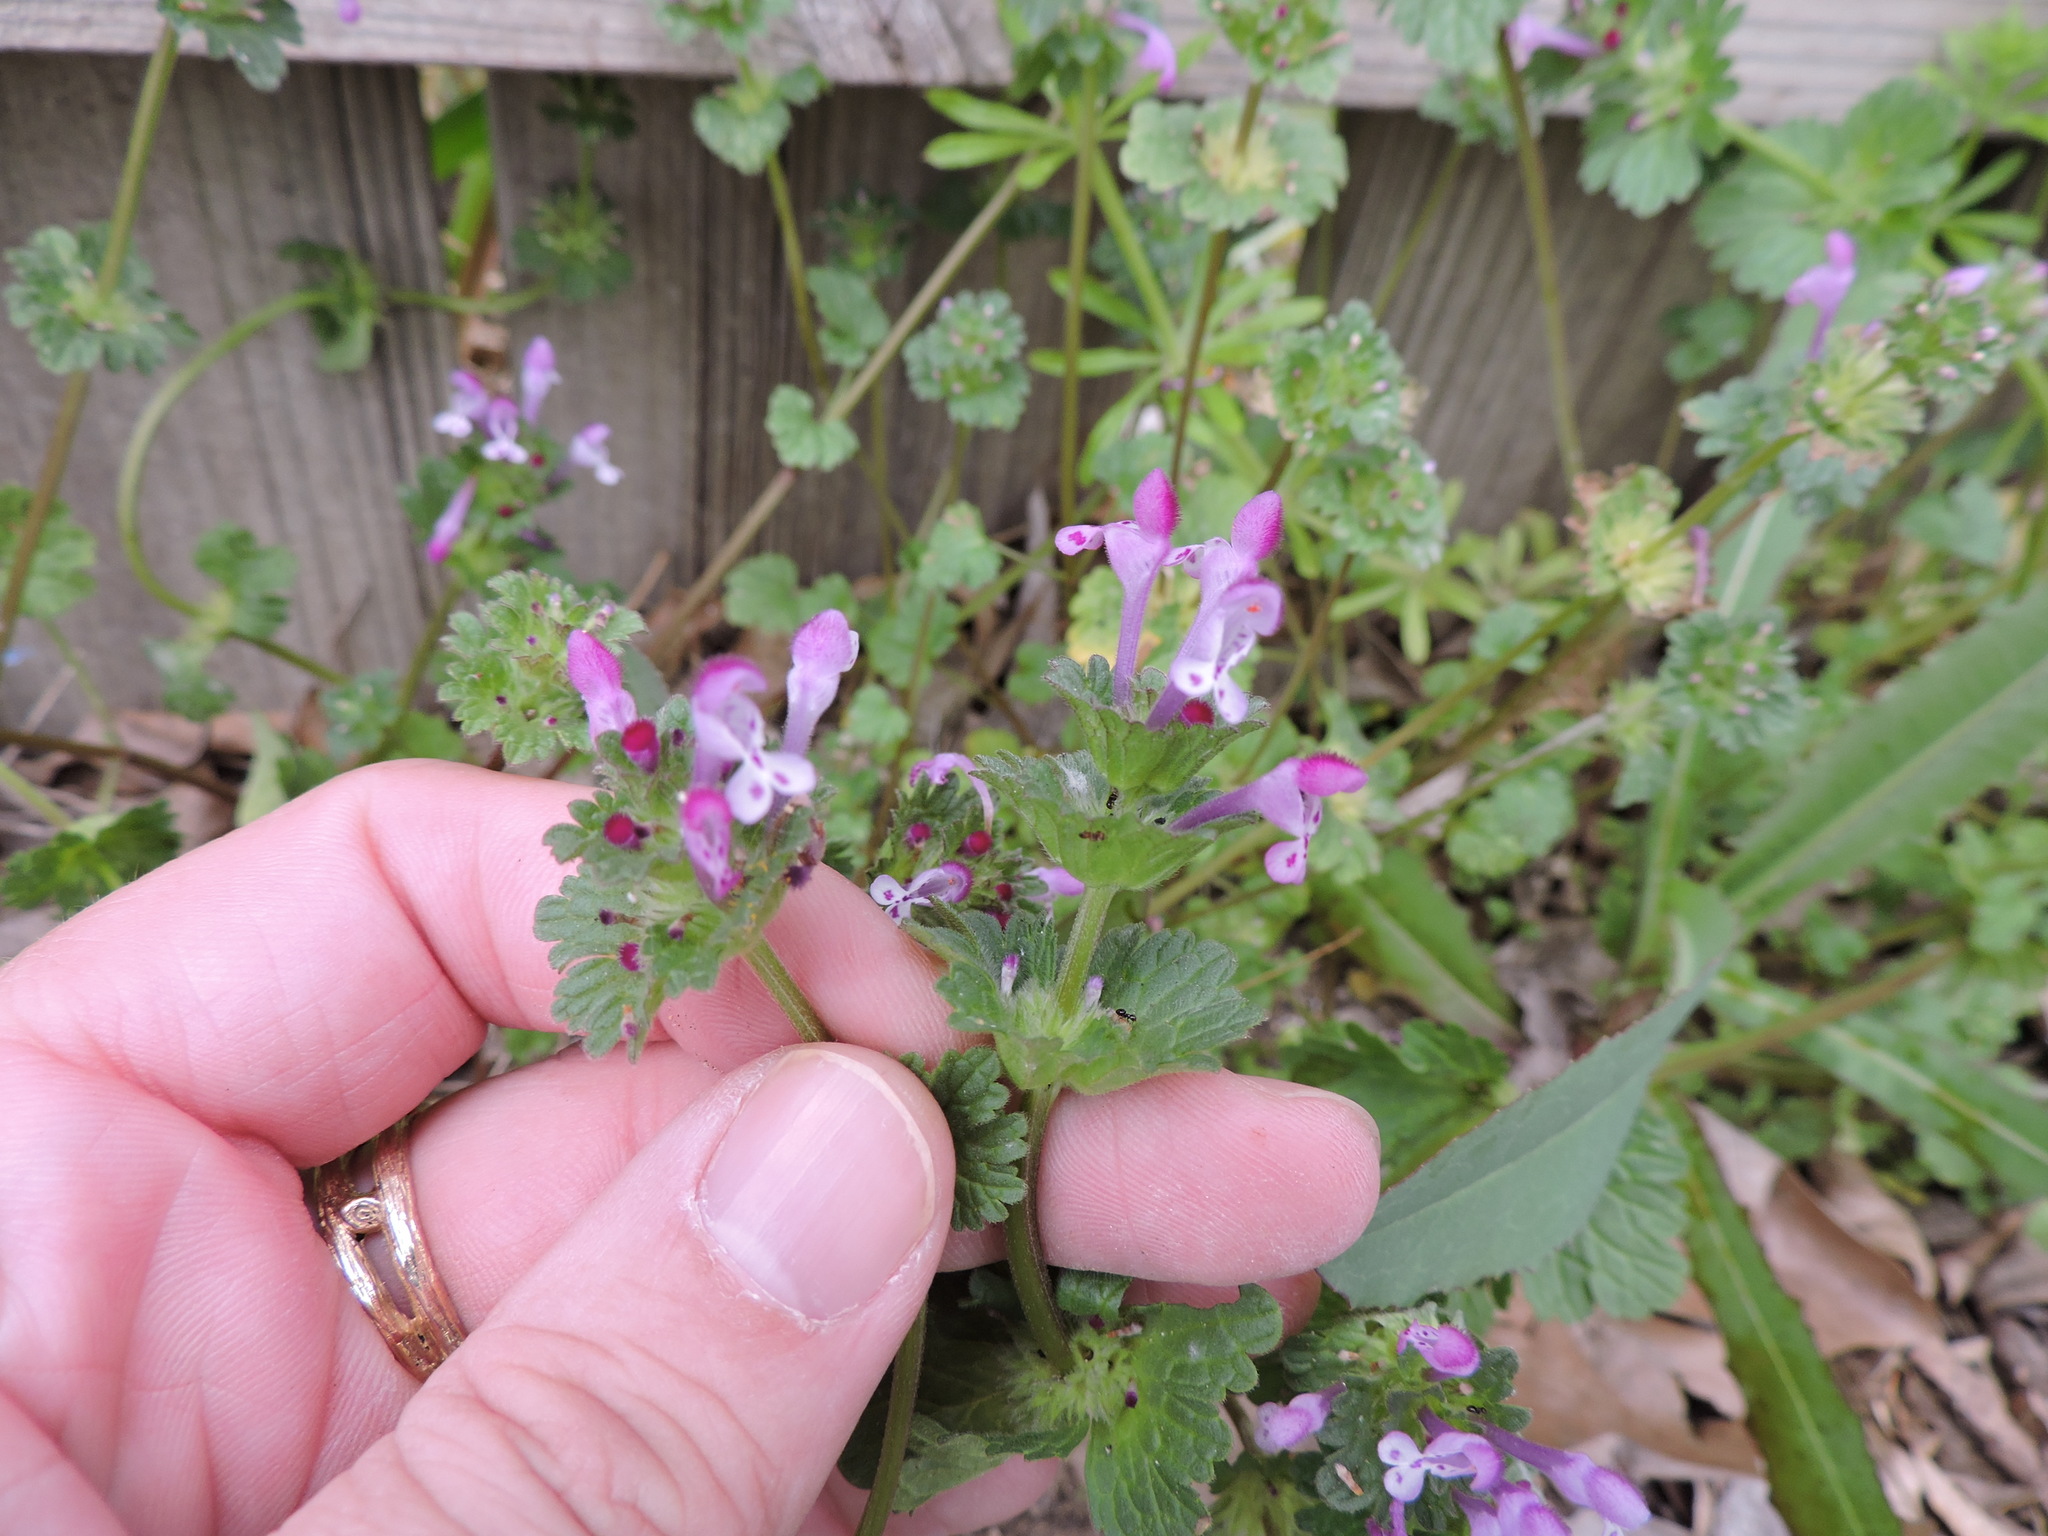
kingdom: Plantae
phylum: Tracheophyta
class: Magnoliopsida
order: Lamiales
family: Lamiaceae
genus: Lamium
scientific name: Lamium amplexicaule
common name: Henbit dead-nettle
